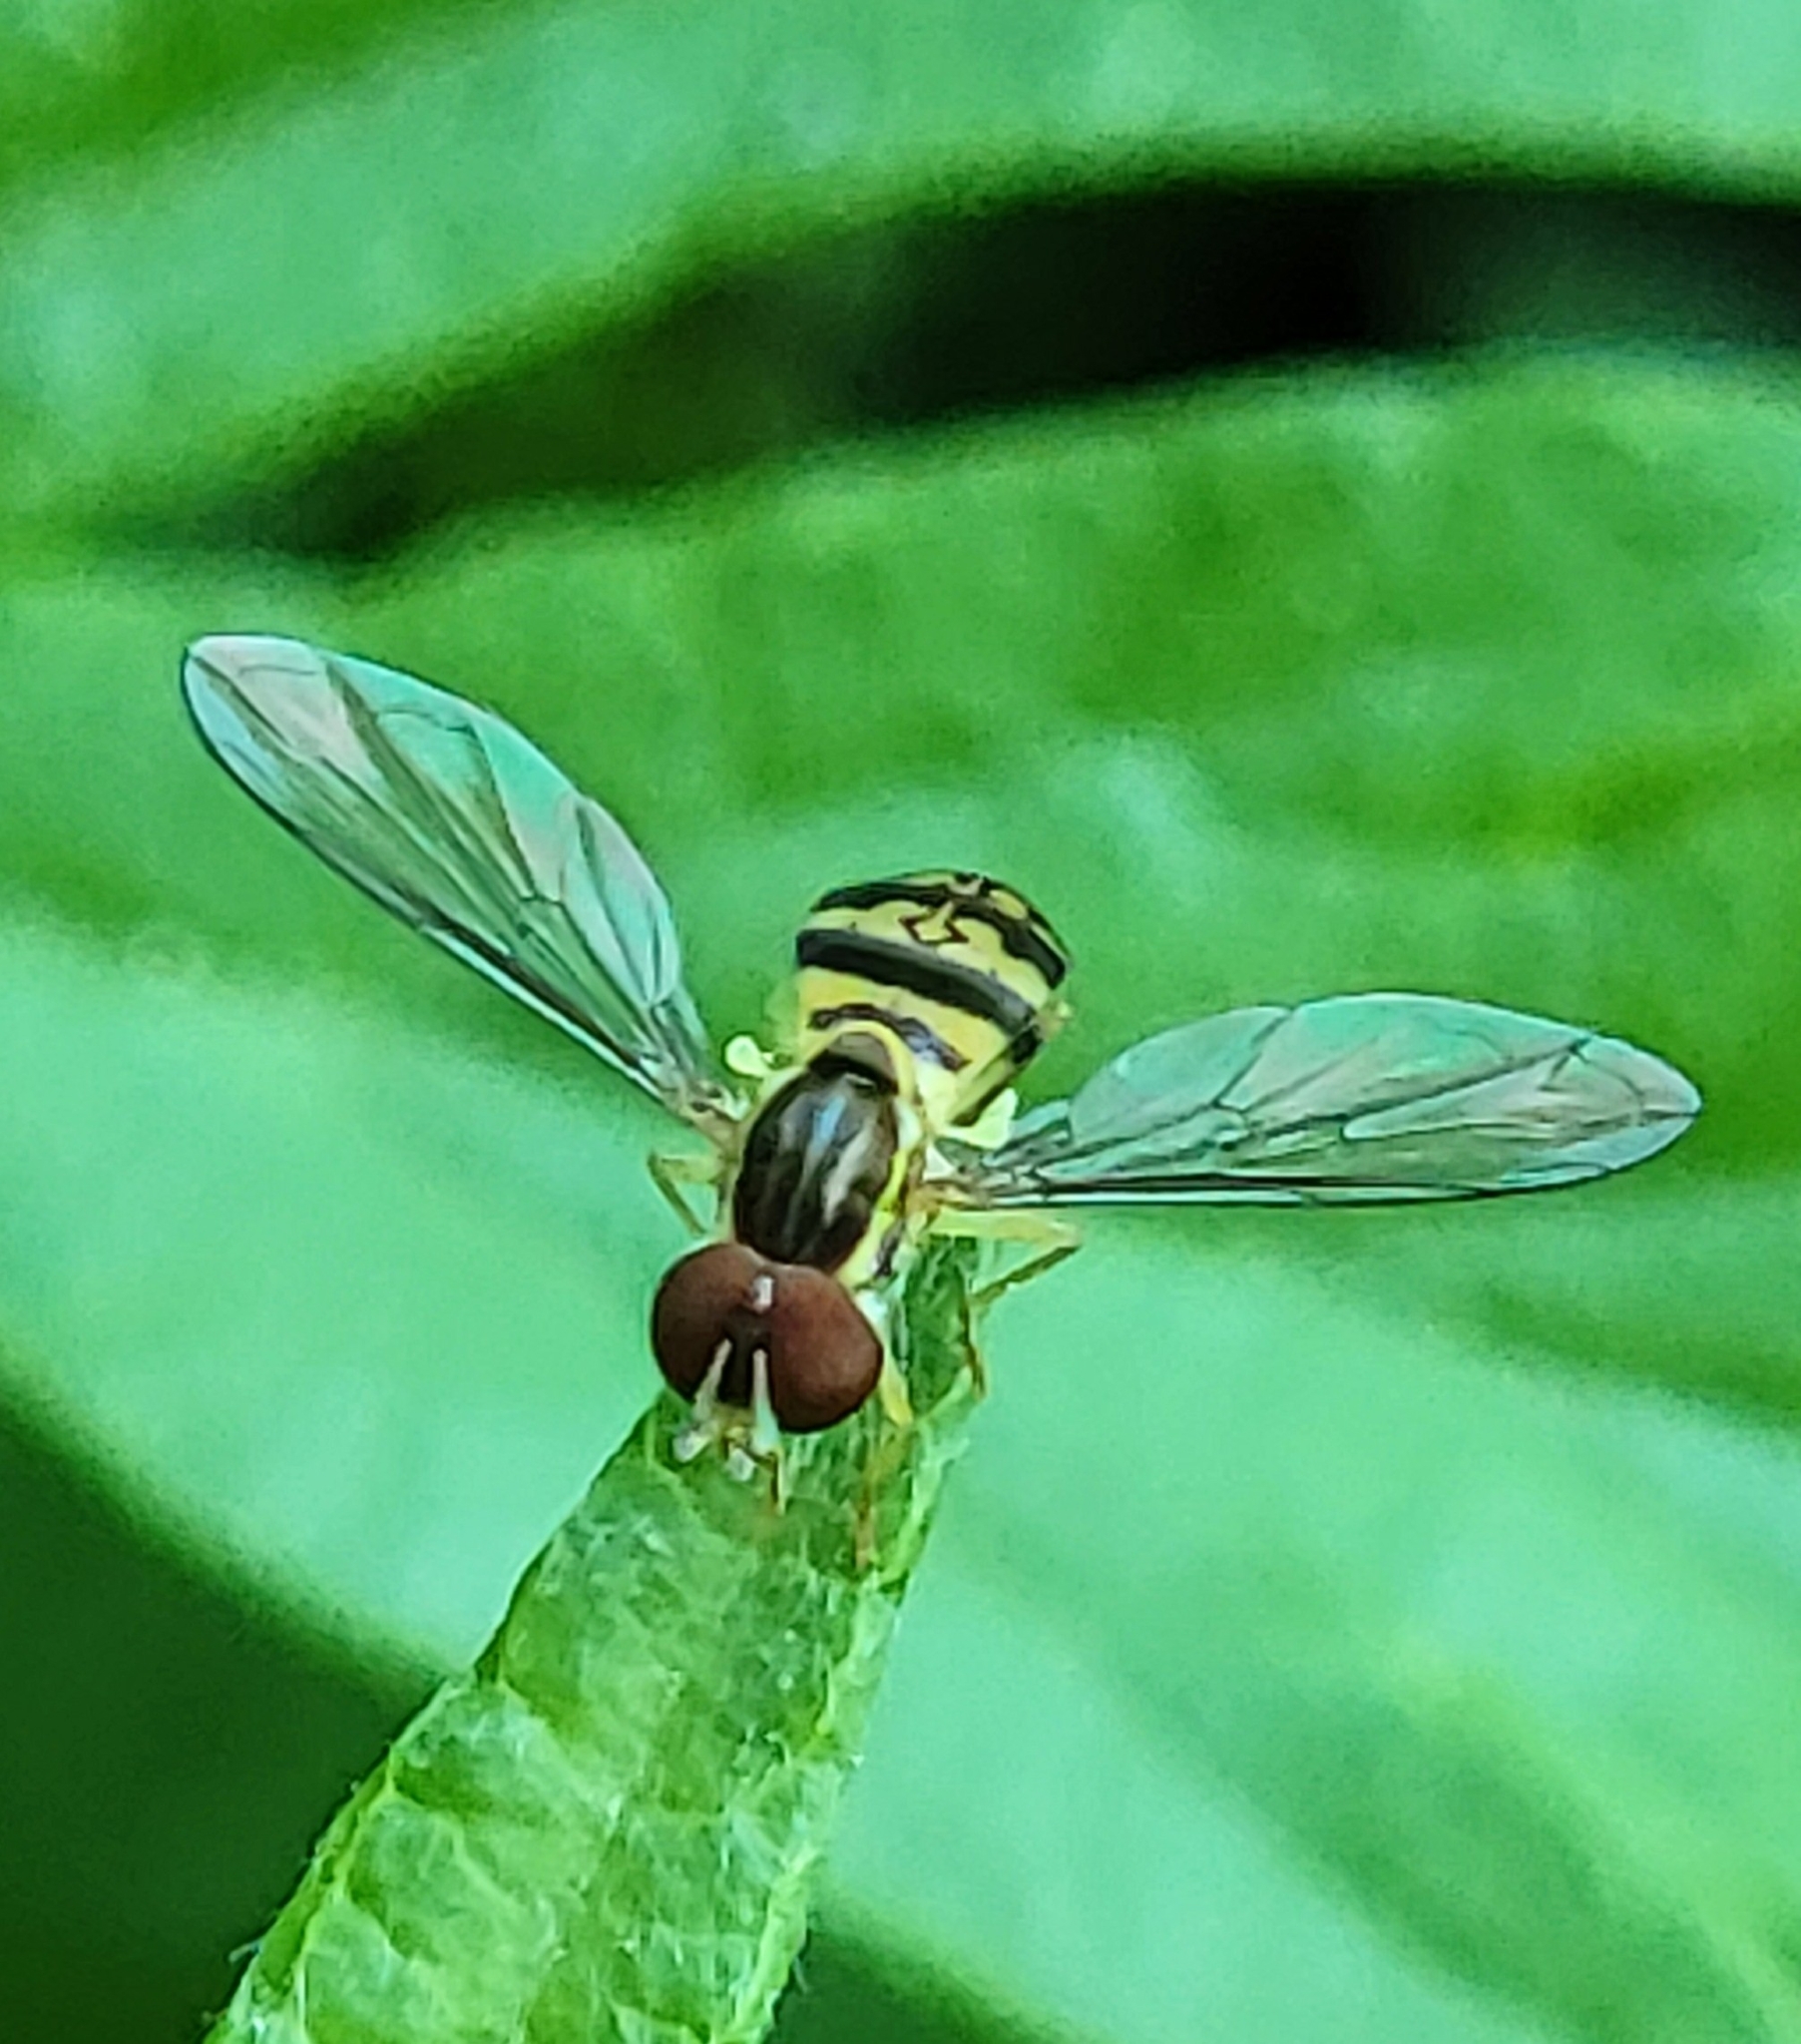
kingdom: Animalia
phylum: Arthropoda
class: Insecta
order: Diptera
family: Syrphidae
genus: Toxomerus
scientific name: Toxomerus geminatus
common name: Eastern calligrapher
